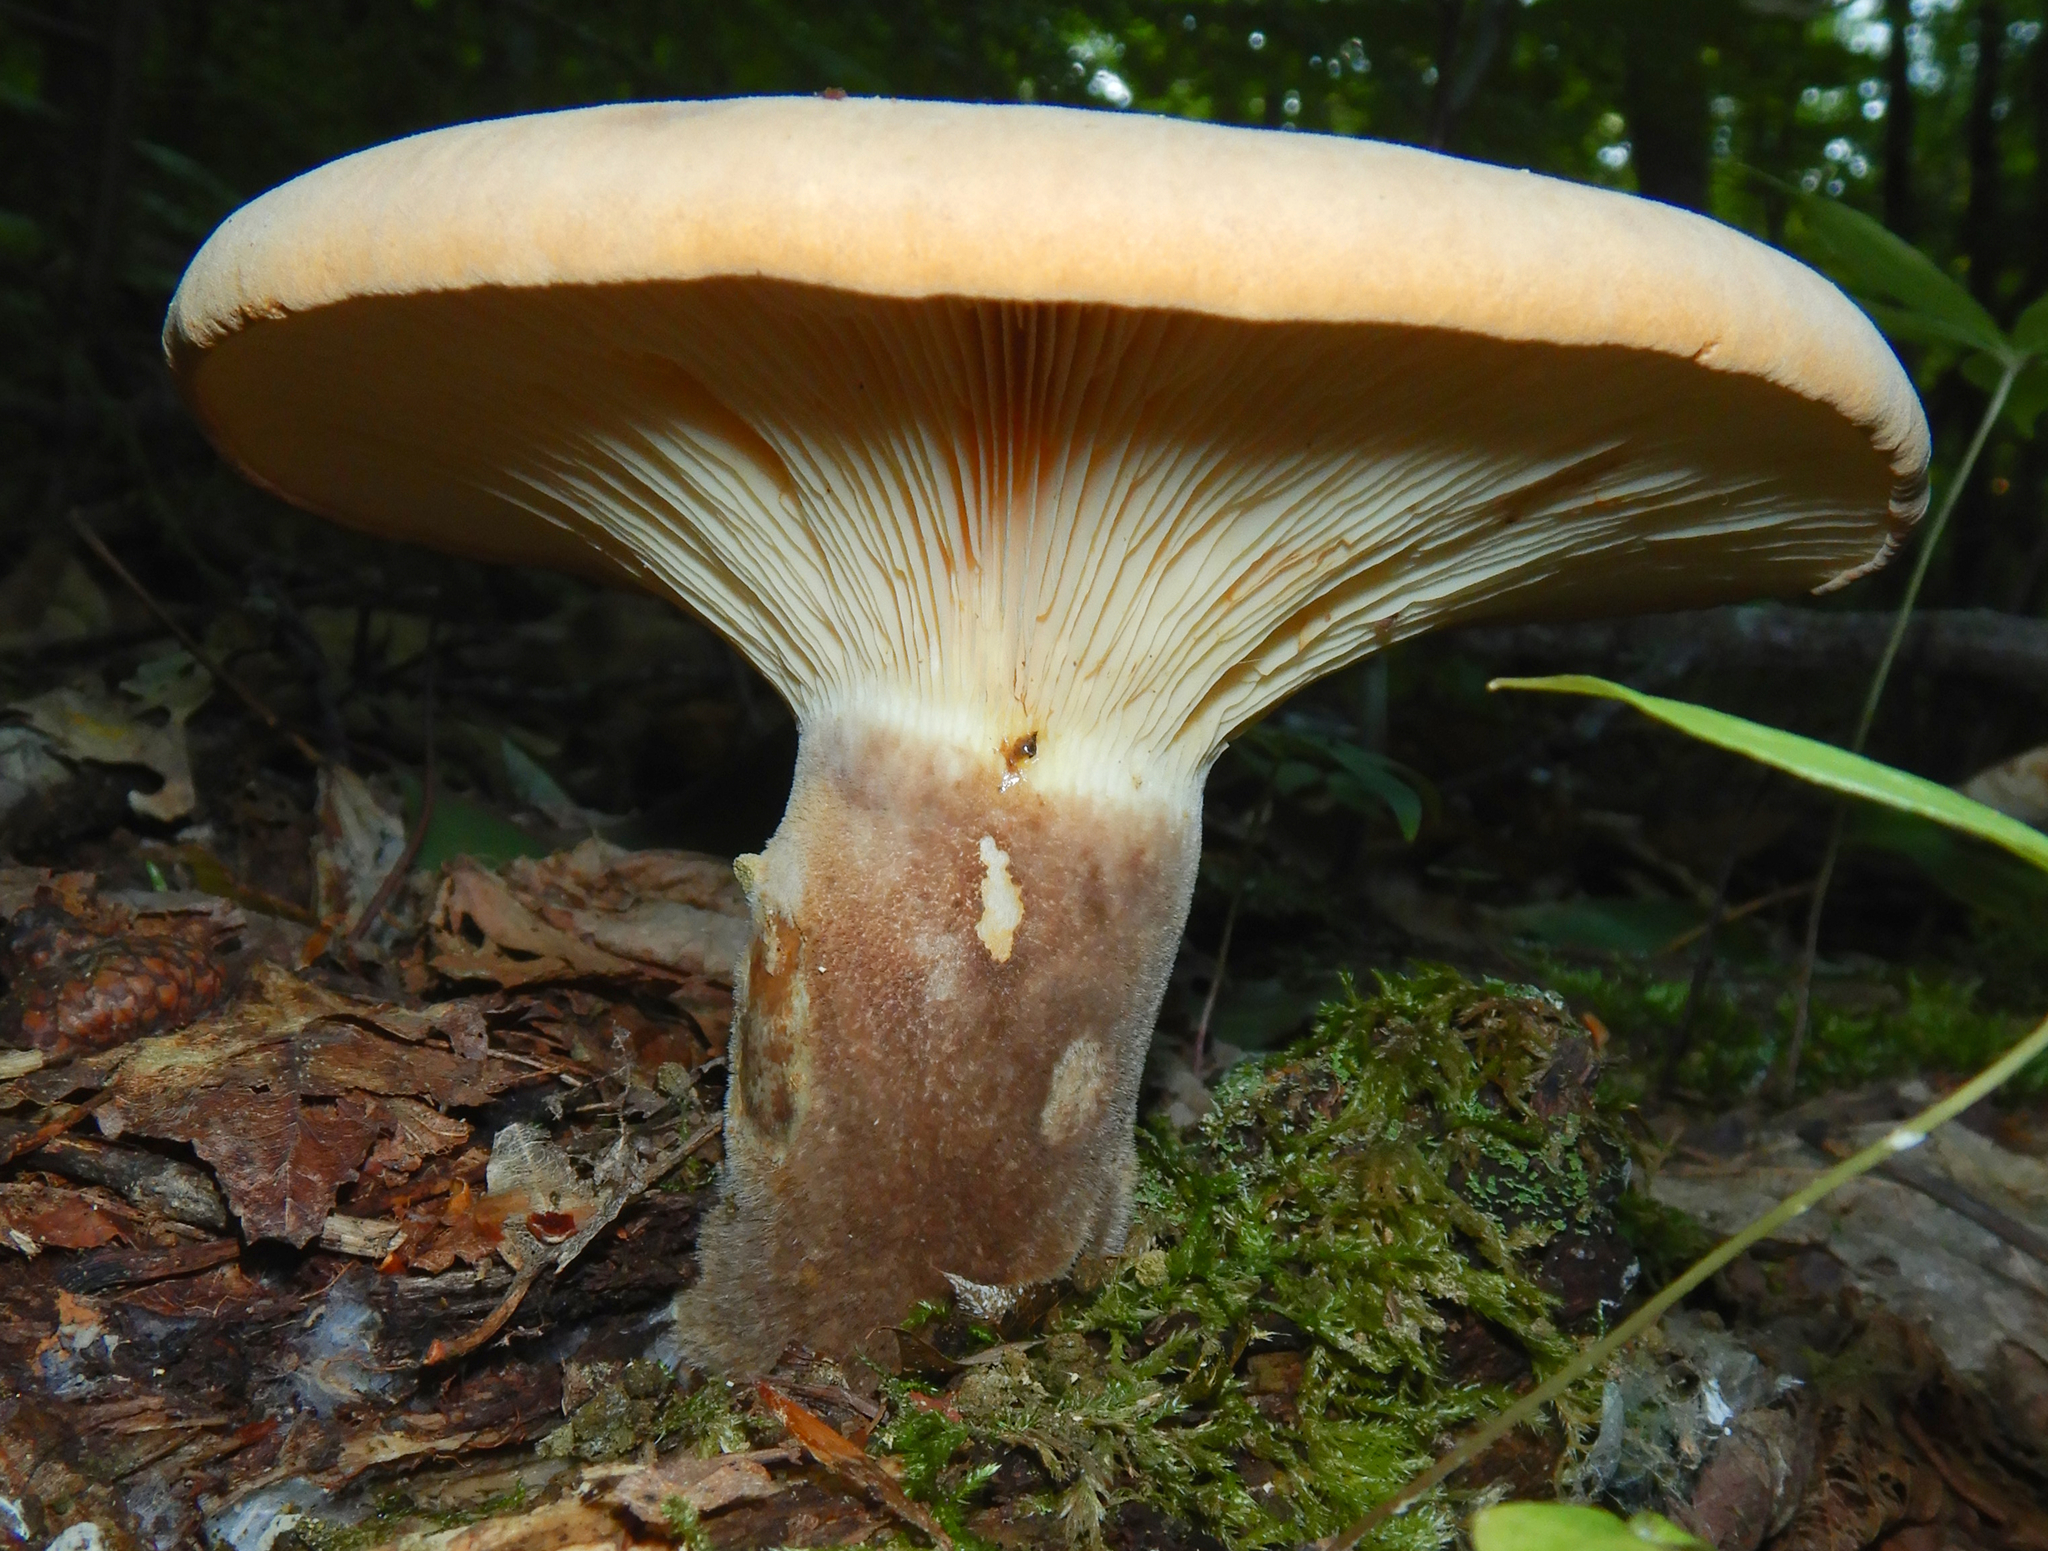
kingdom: Fungi
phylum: Basidiomycota
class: Agaricomycetes
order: Boletales
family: Tapinellaceae
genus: Tapinella
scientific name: Tapinella atrotomentosa
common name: Velvet rollrim
